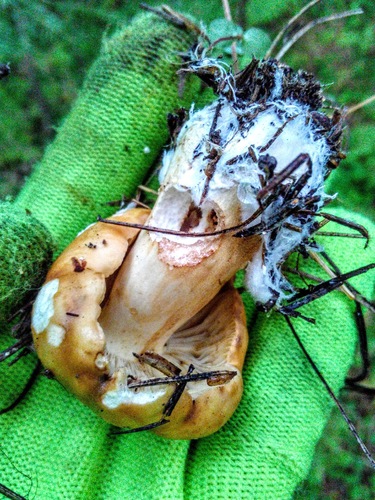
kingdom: Fungi
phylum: Basidiomycota
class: Agaricomycetes
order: Russulales
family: Russulaceae
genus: Russula
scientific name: Russula foetens
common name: Foetid russula
